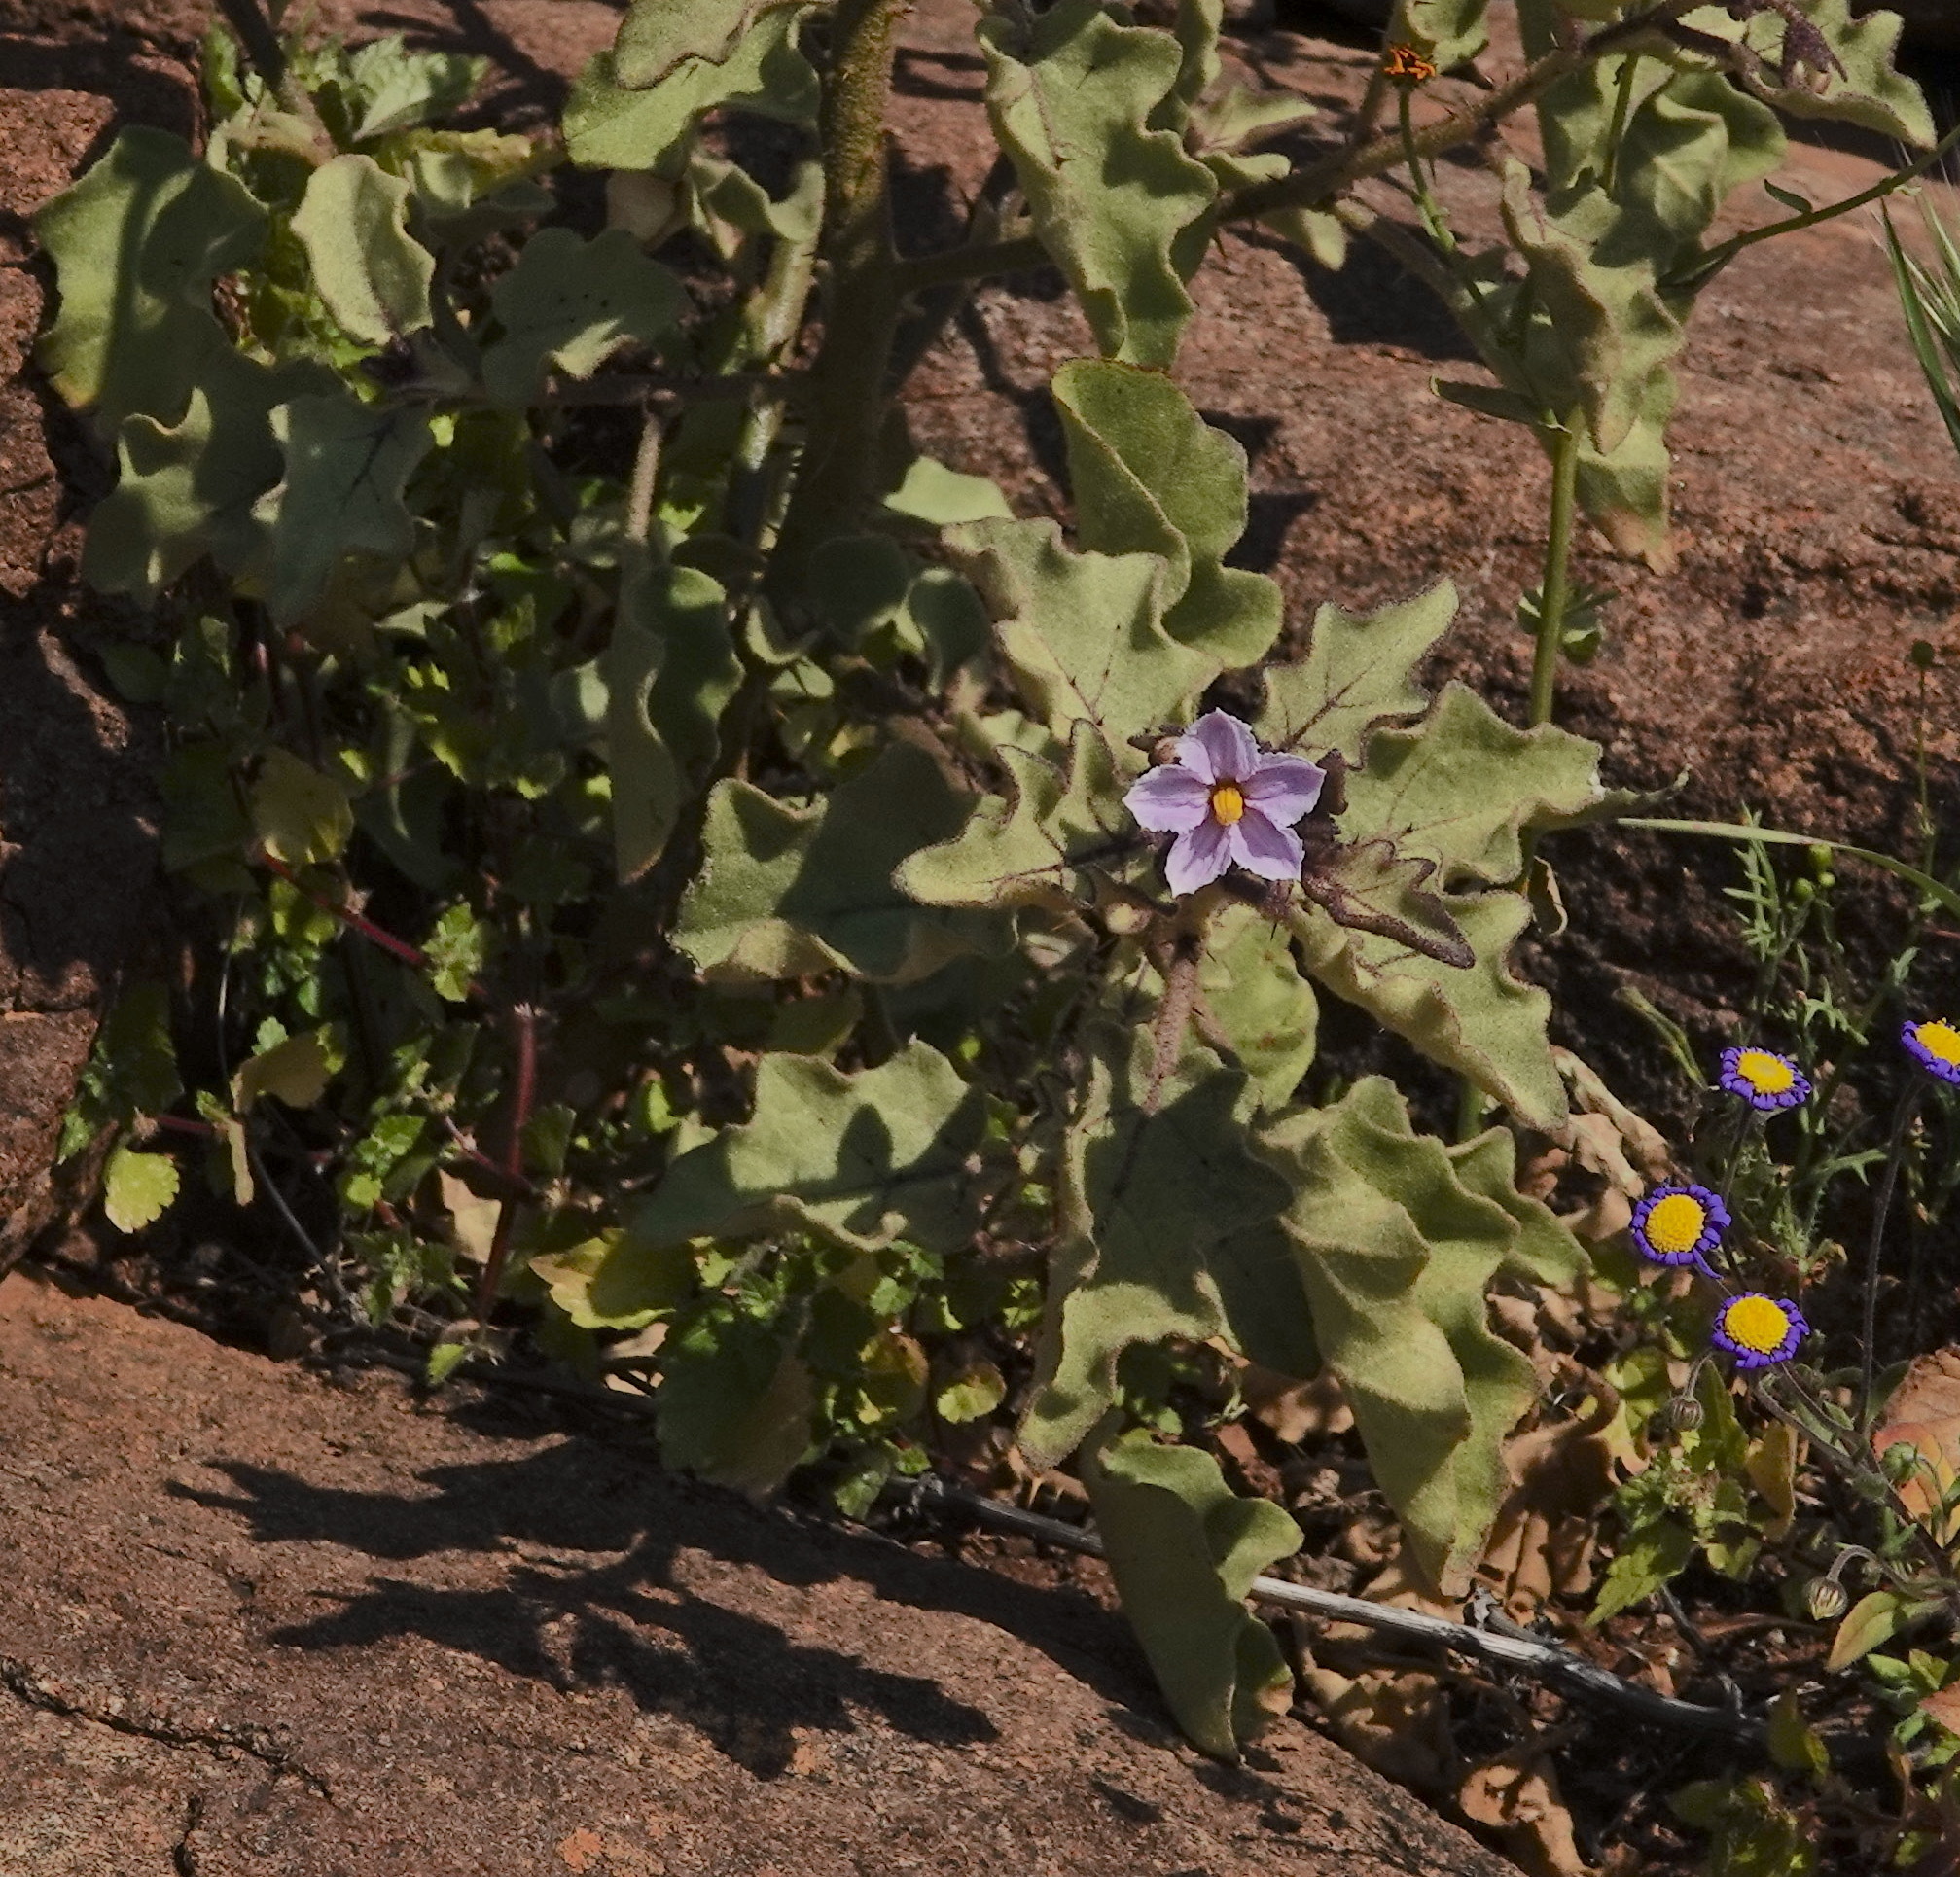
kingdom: Plantae
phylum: Tracheophyta
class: Magnoliopsida
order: Solanales
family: Solanaceae
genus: Solanum
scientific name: Solanum tomentosum
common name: Wild aubergine
